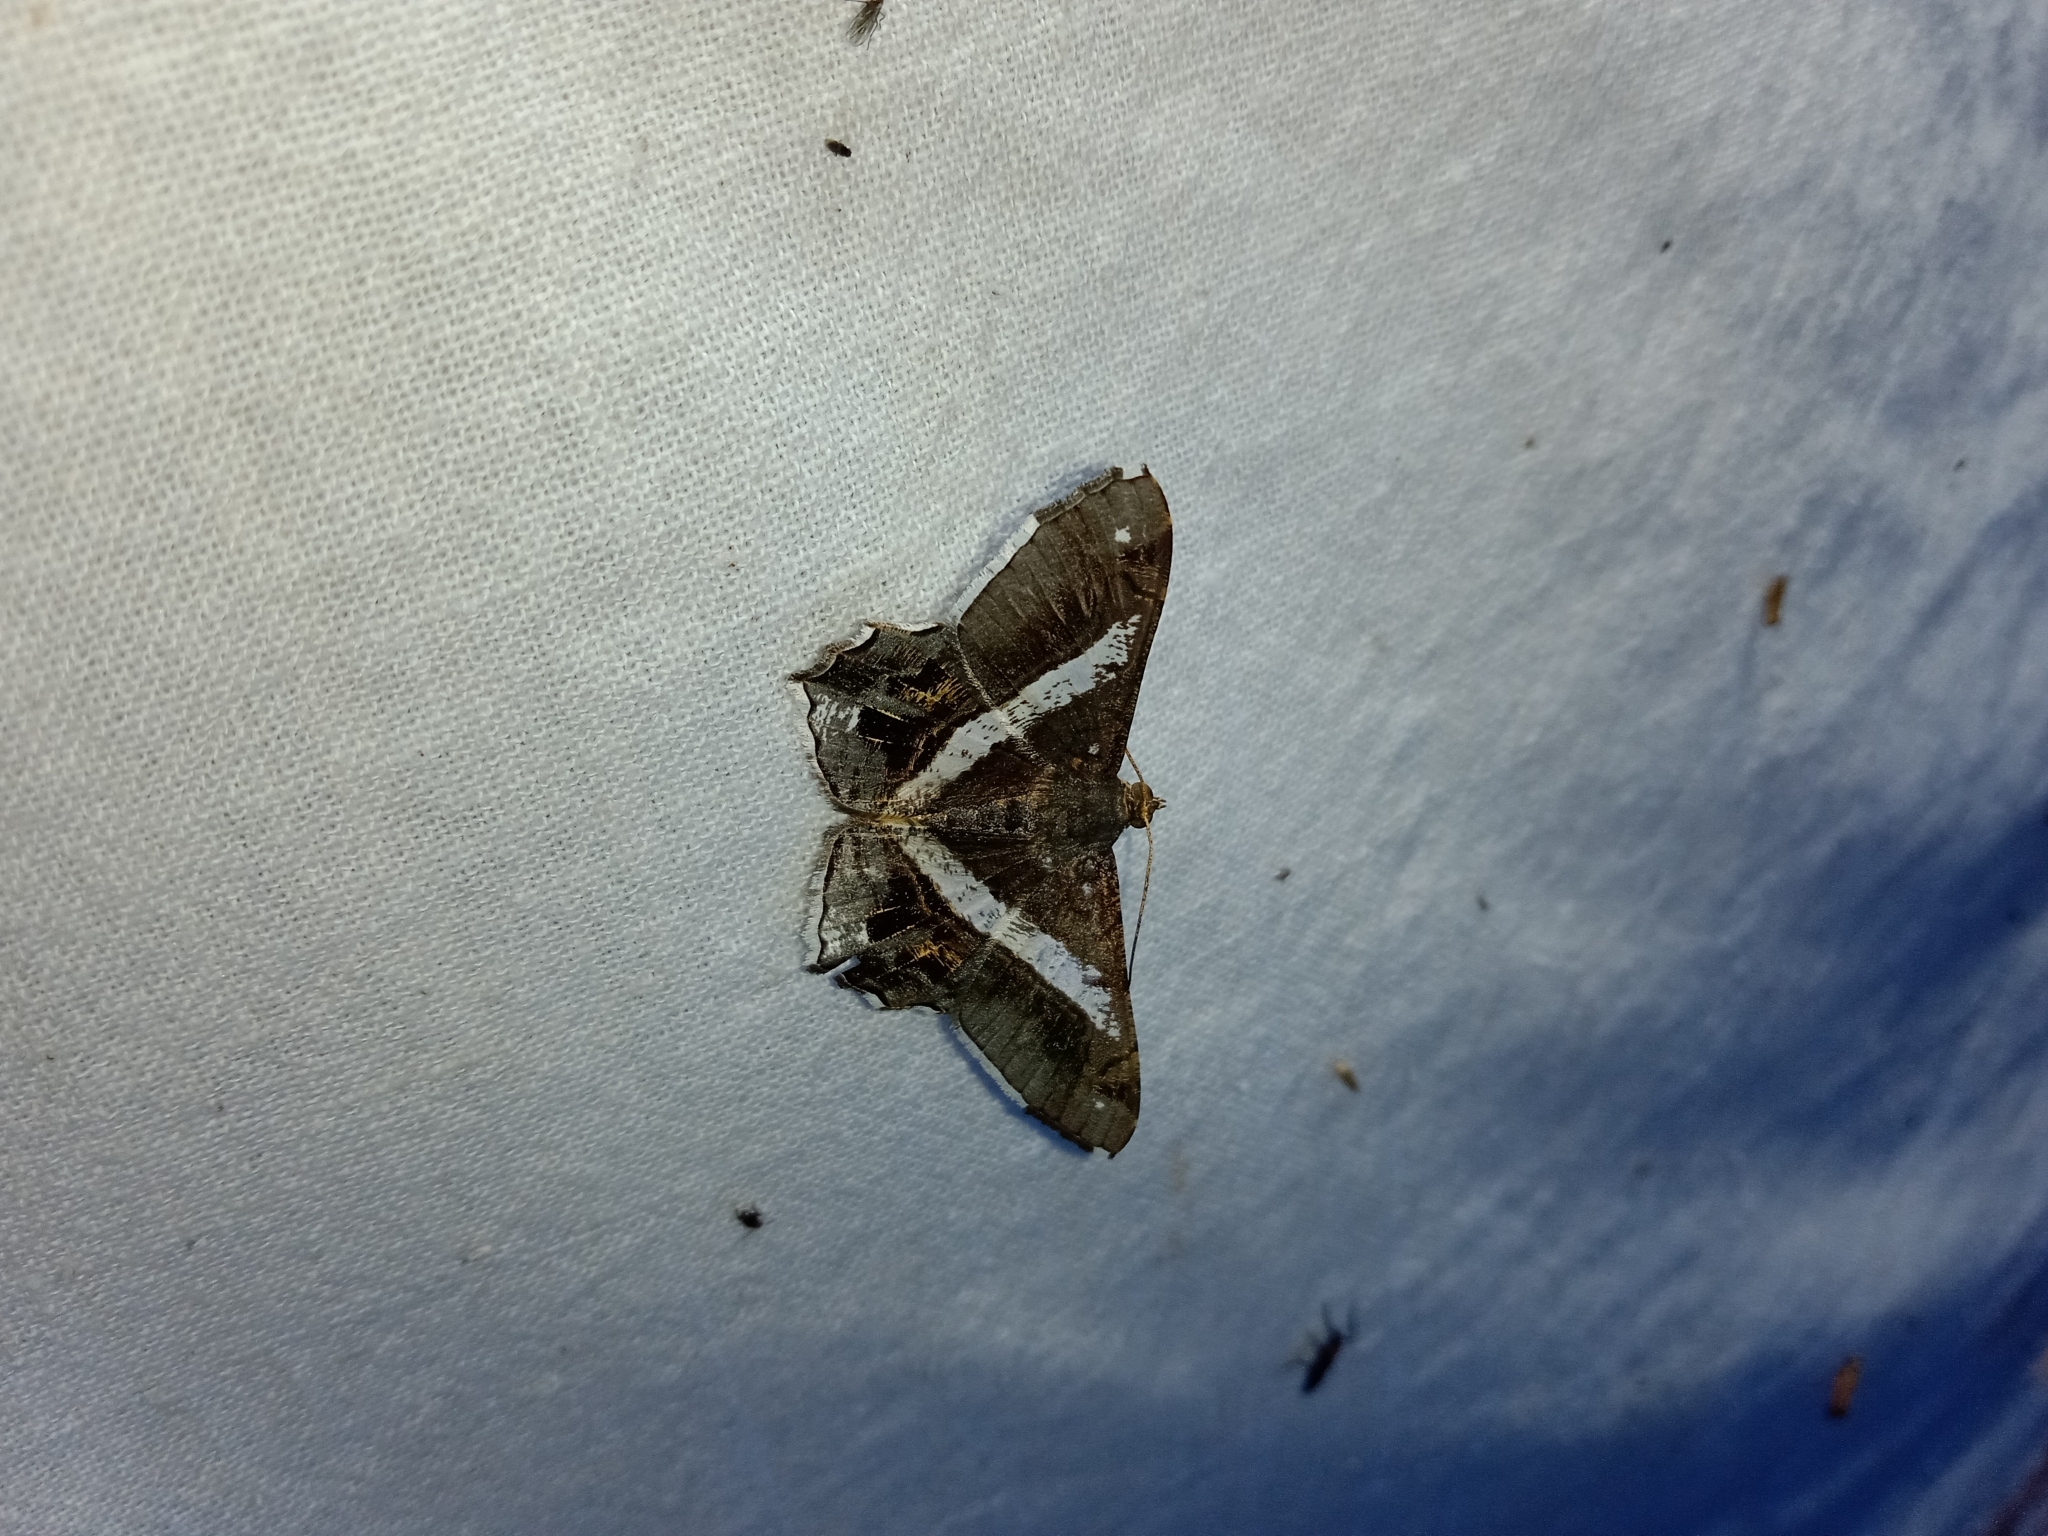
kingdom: Animalia
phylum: Arthropoda
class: Insecta
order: Lepidoptera
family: Geometridae
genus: Chiasmia
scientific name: Chiasmia nora
